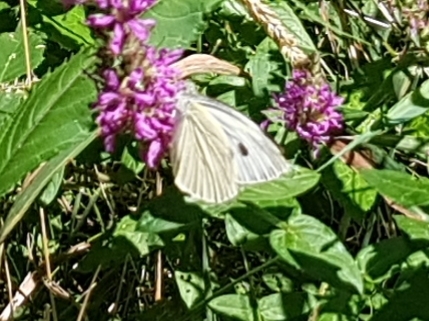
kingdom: Animalia
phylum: Arthropoda
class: Insecta
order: Lepidoptera
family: Pieridae
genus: Pieris
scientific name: Pieris brassicae
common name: Large white
